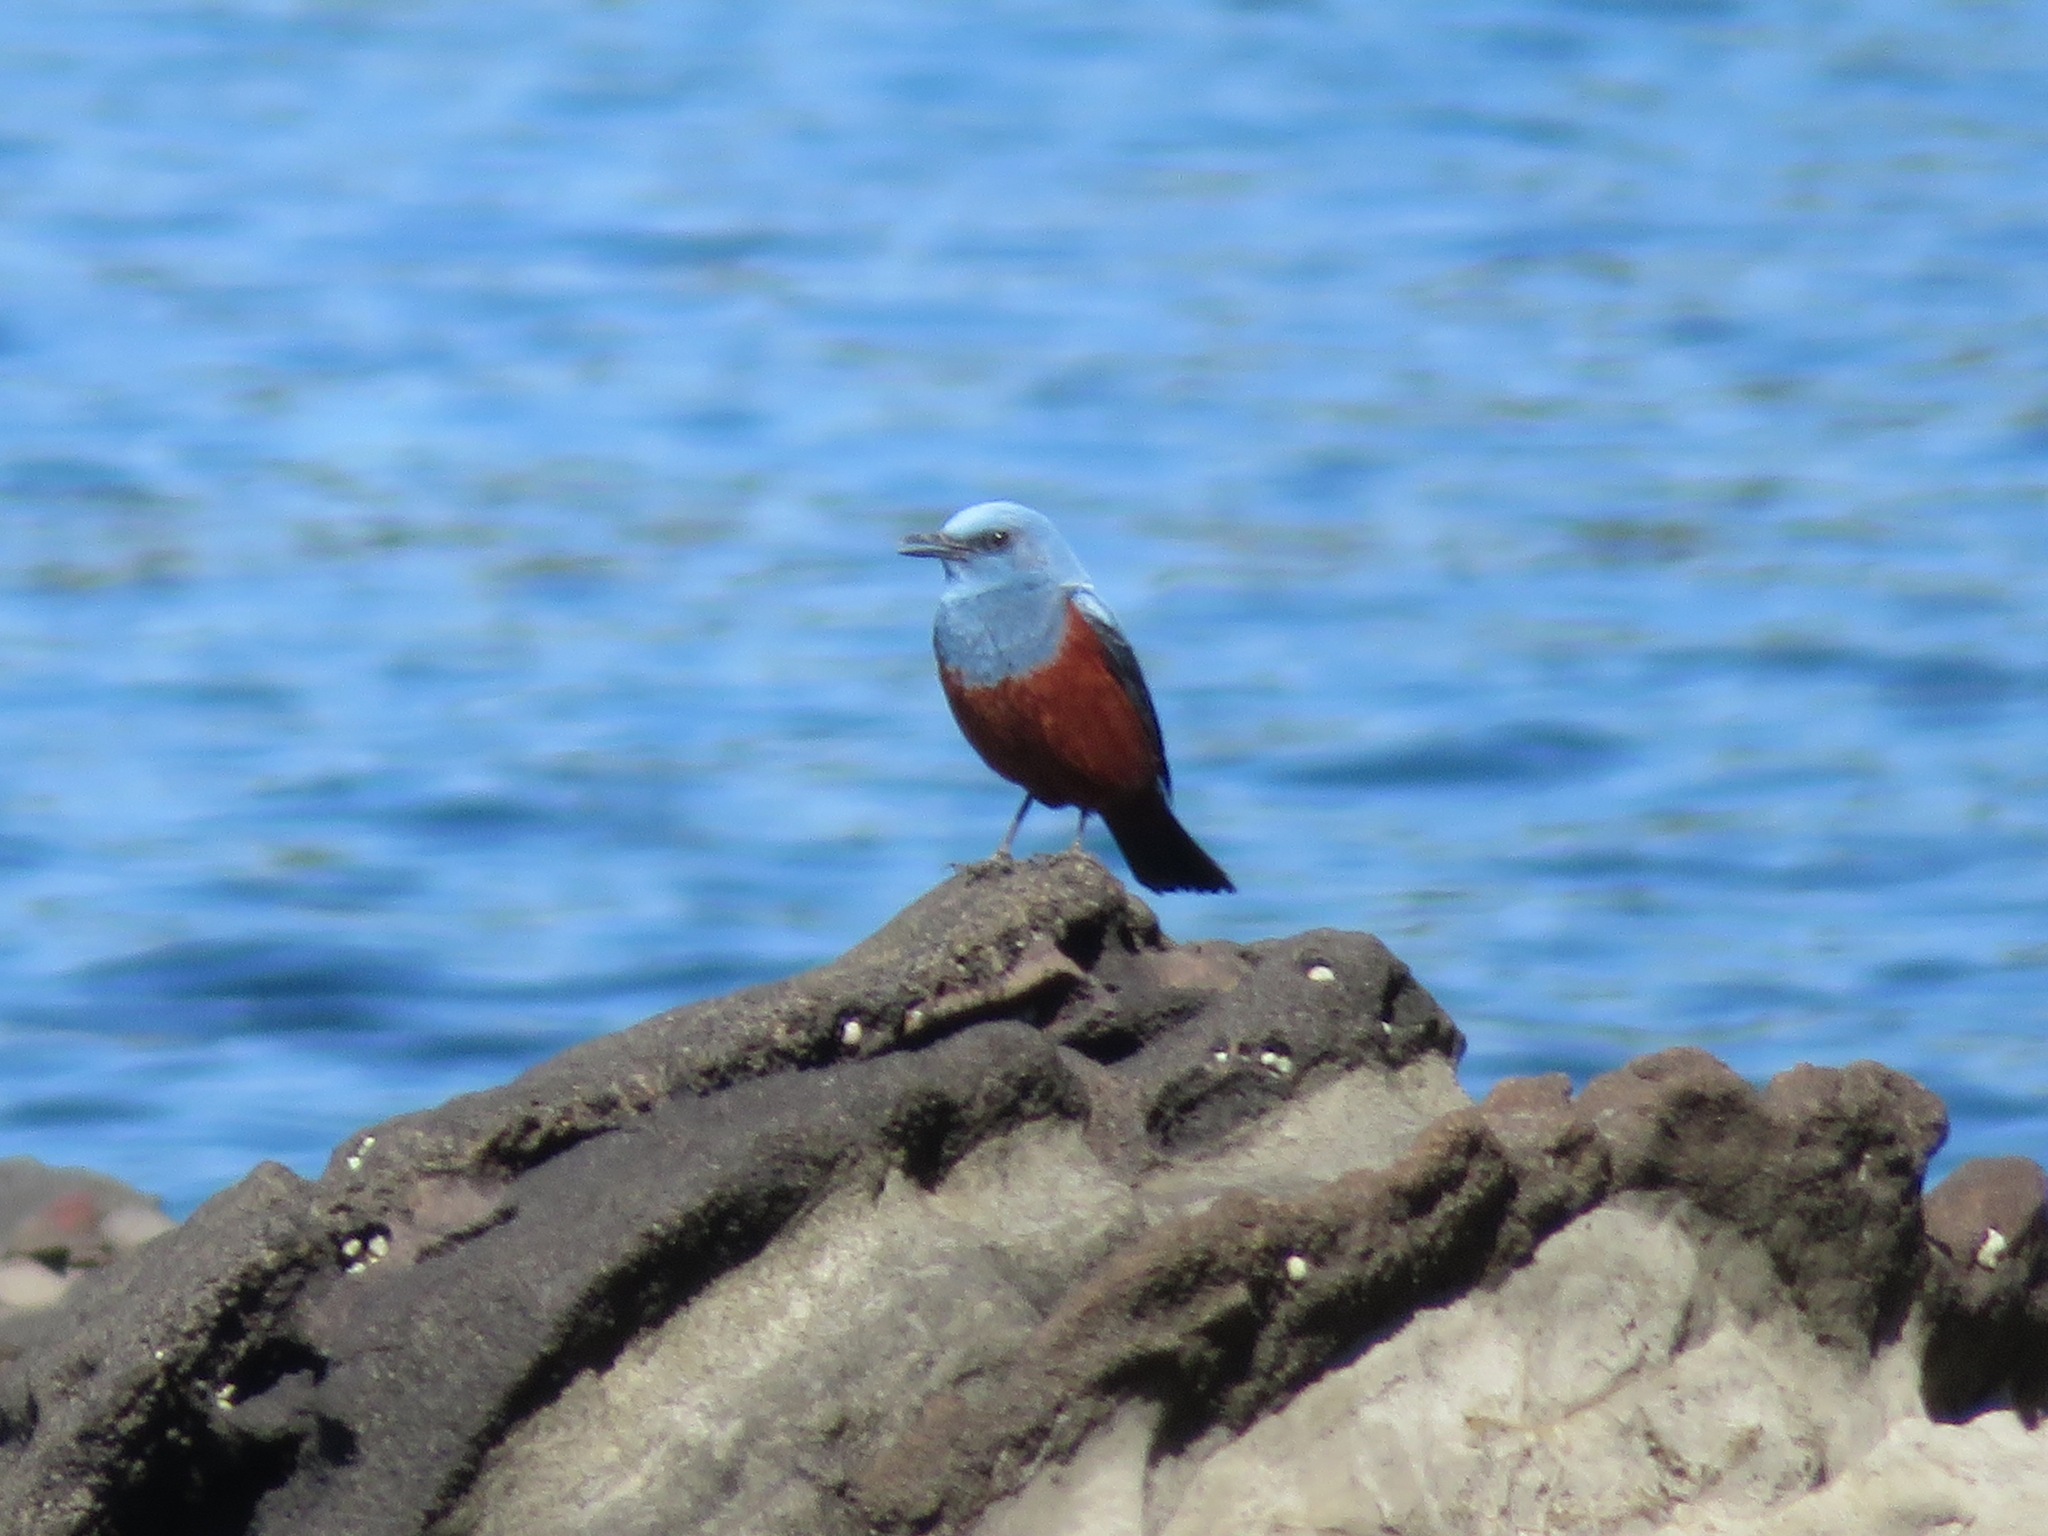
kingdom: Animalia
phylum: Chordata
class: Aves
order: Passeriformes
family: Muscicapidae
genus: Monticola
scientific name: Monticola solitarius
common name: Blue rock thrush
